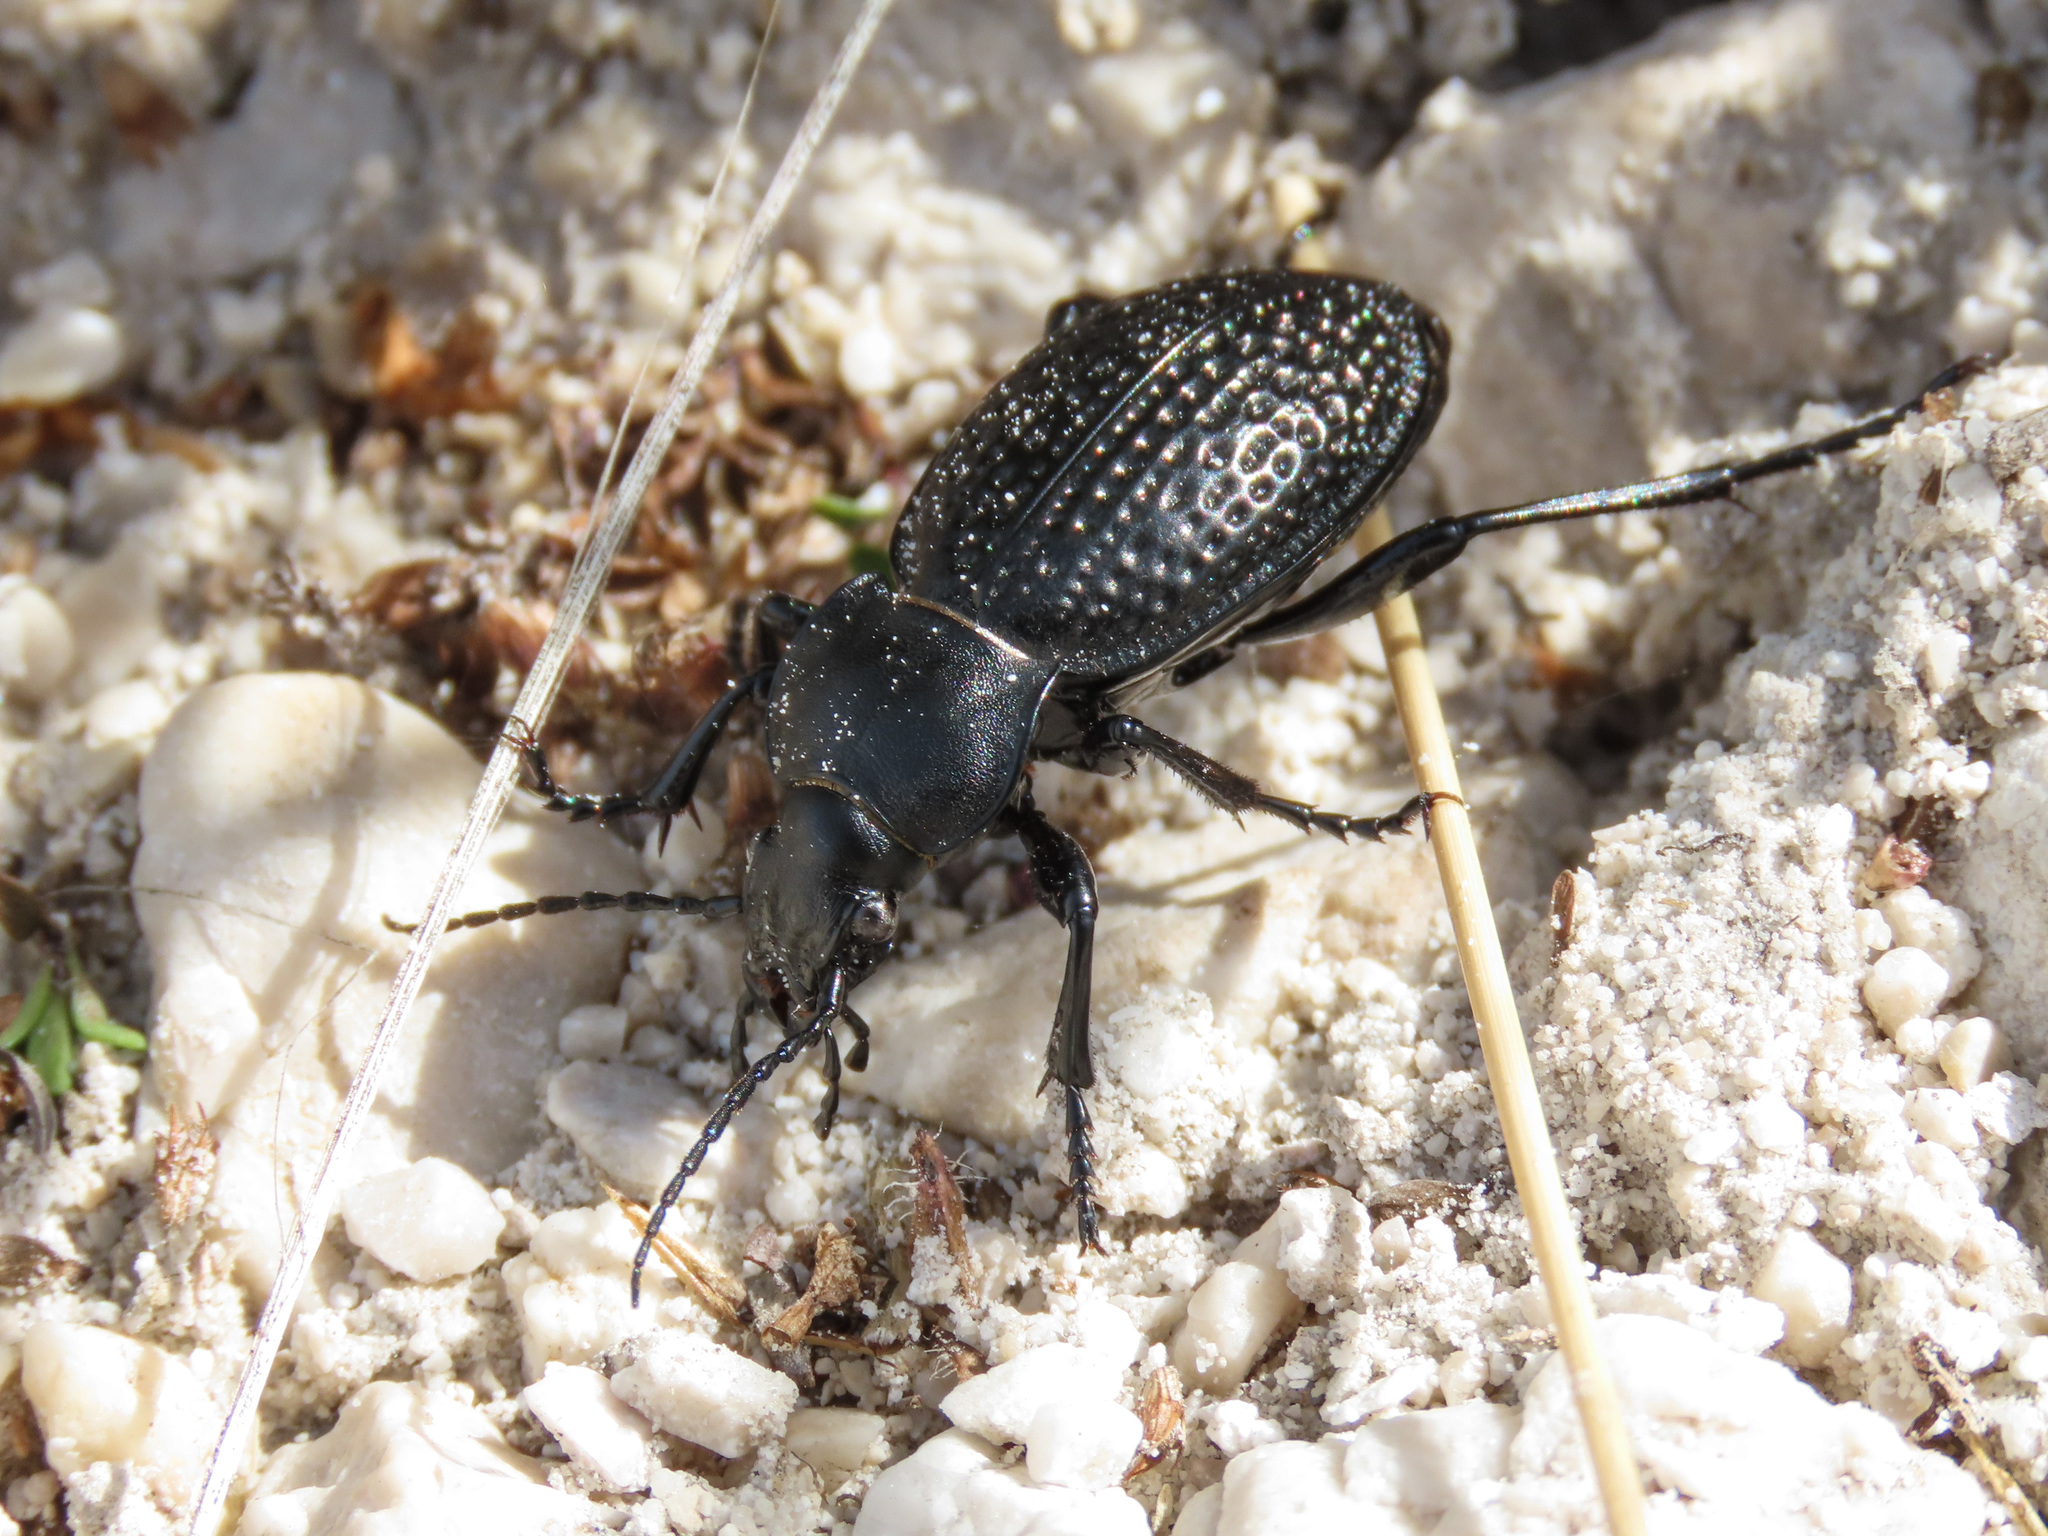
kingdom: Animalia
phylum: Arthropoda
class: Insecta
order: Coleoptera
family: Carabidae
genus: Carabus
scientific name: Carabus cavernosus
